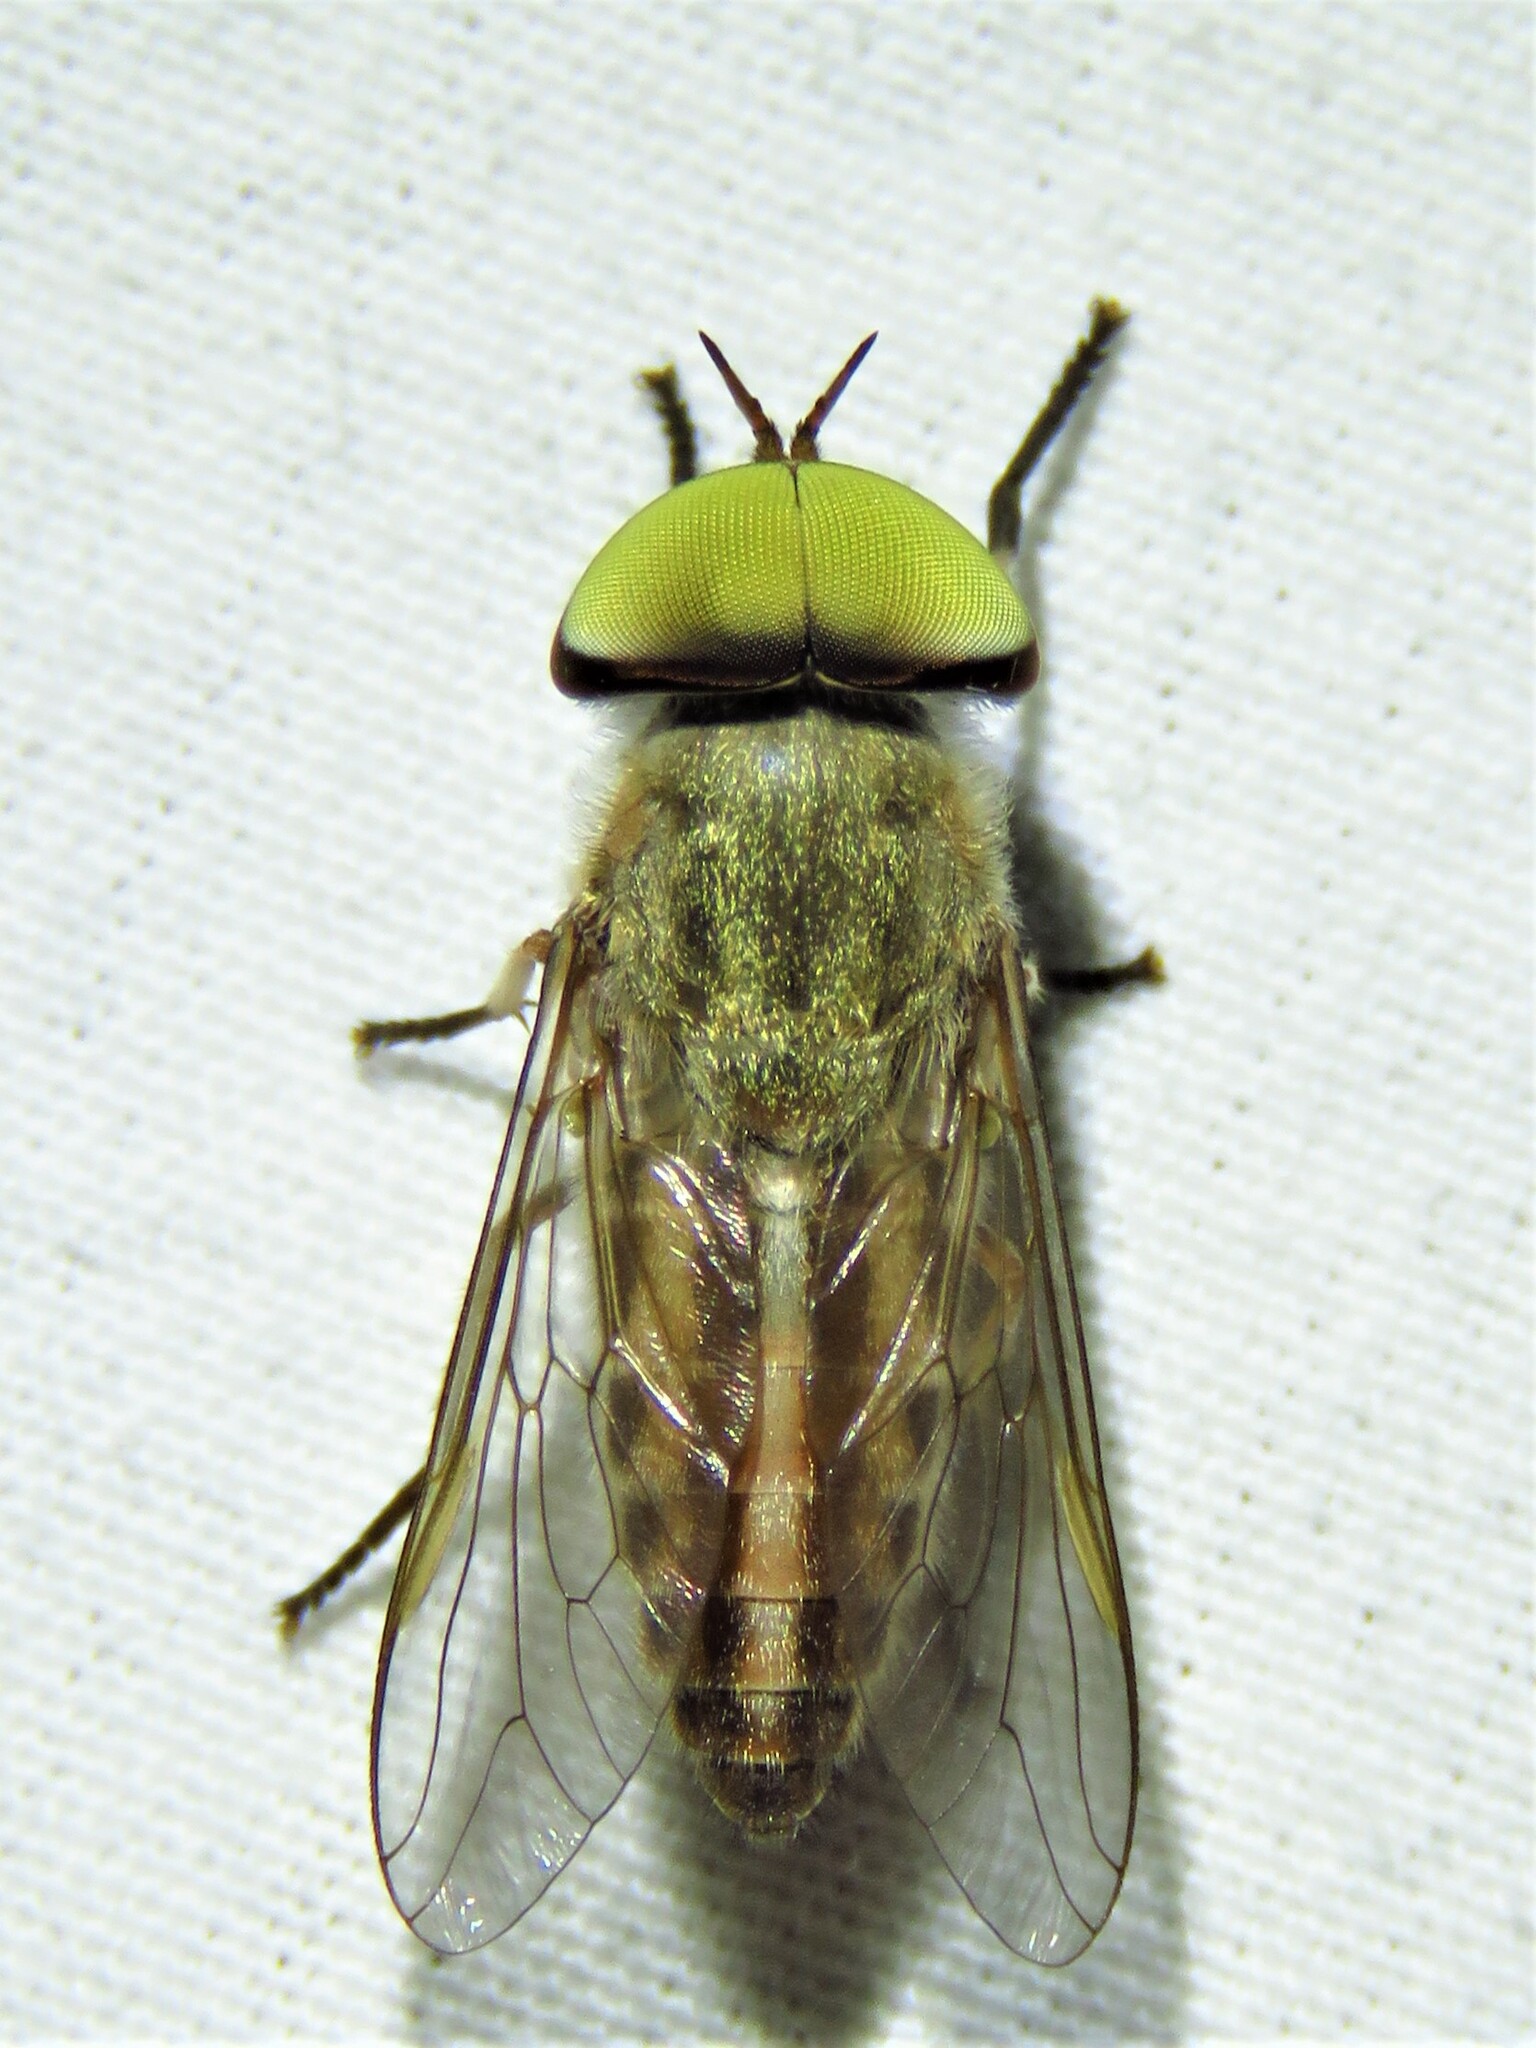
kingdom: Animalia
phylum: Arthropoda
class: Insecta
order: Diptera
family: Tabanidae
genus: Tabanus
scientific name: Tabanus lineola
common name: Striped horse fly
